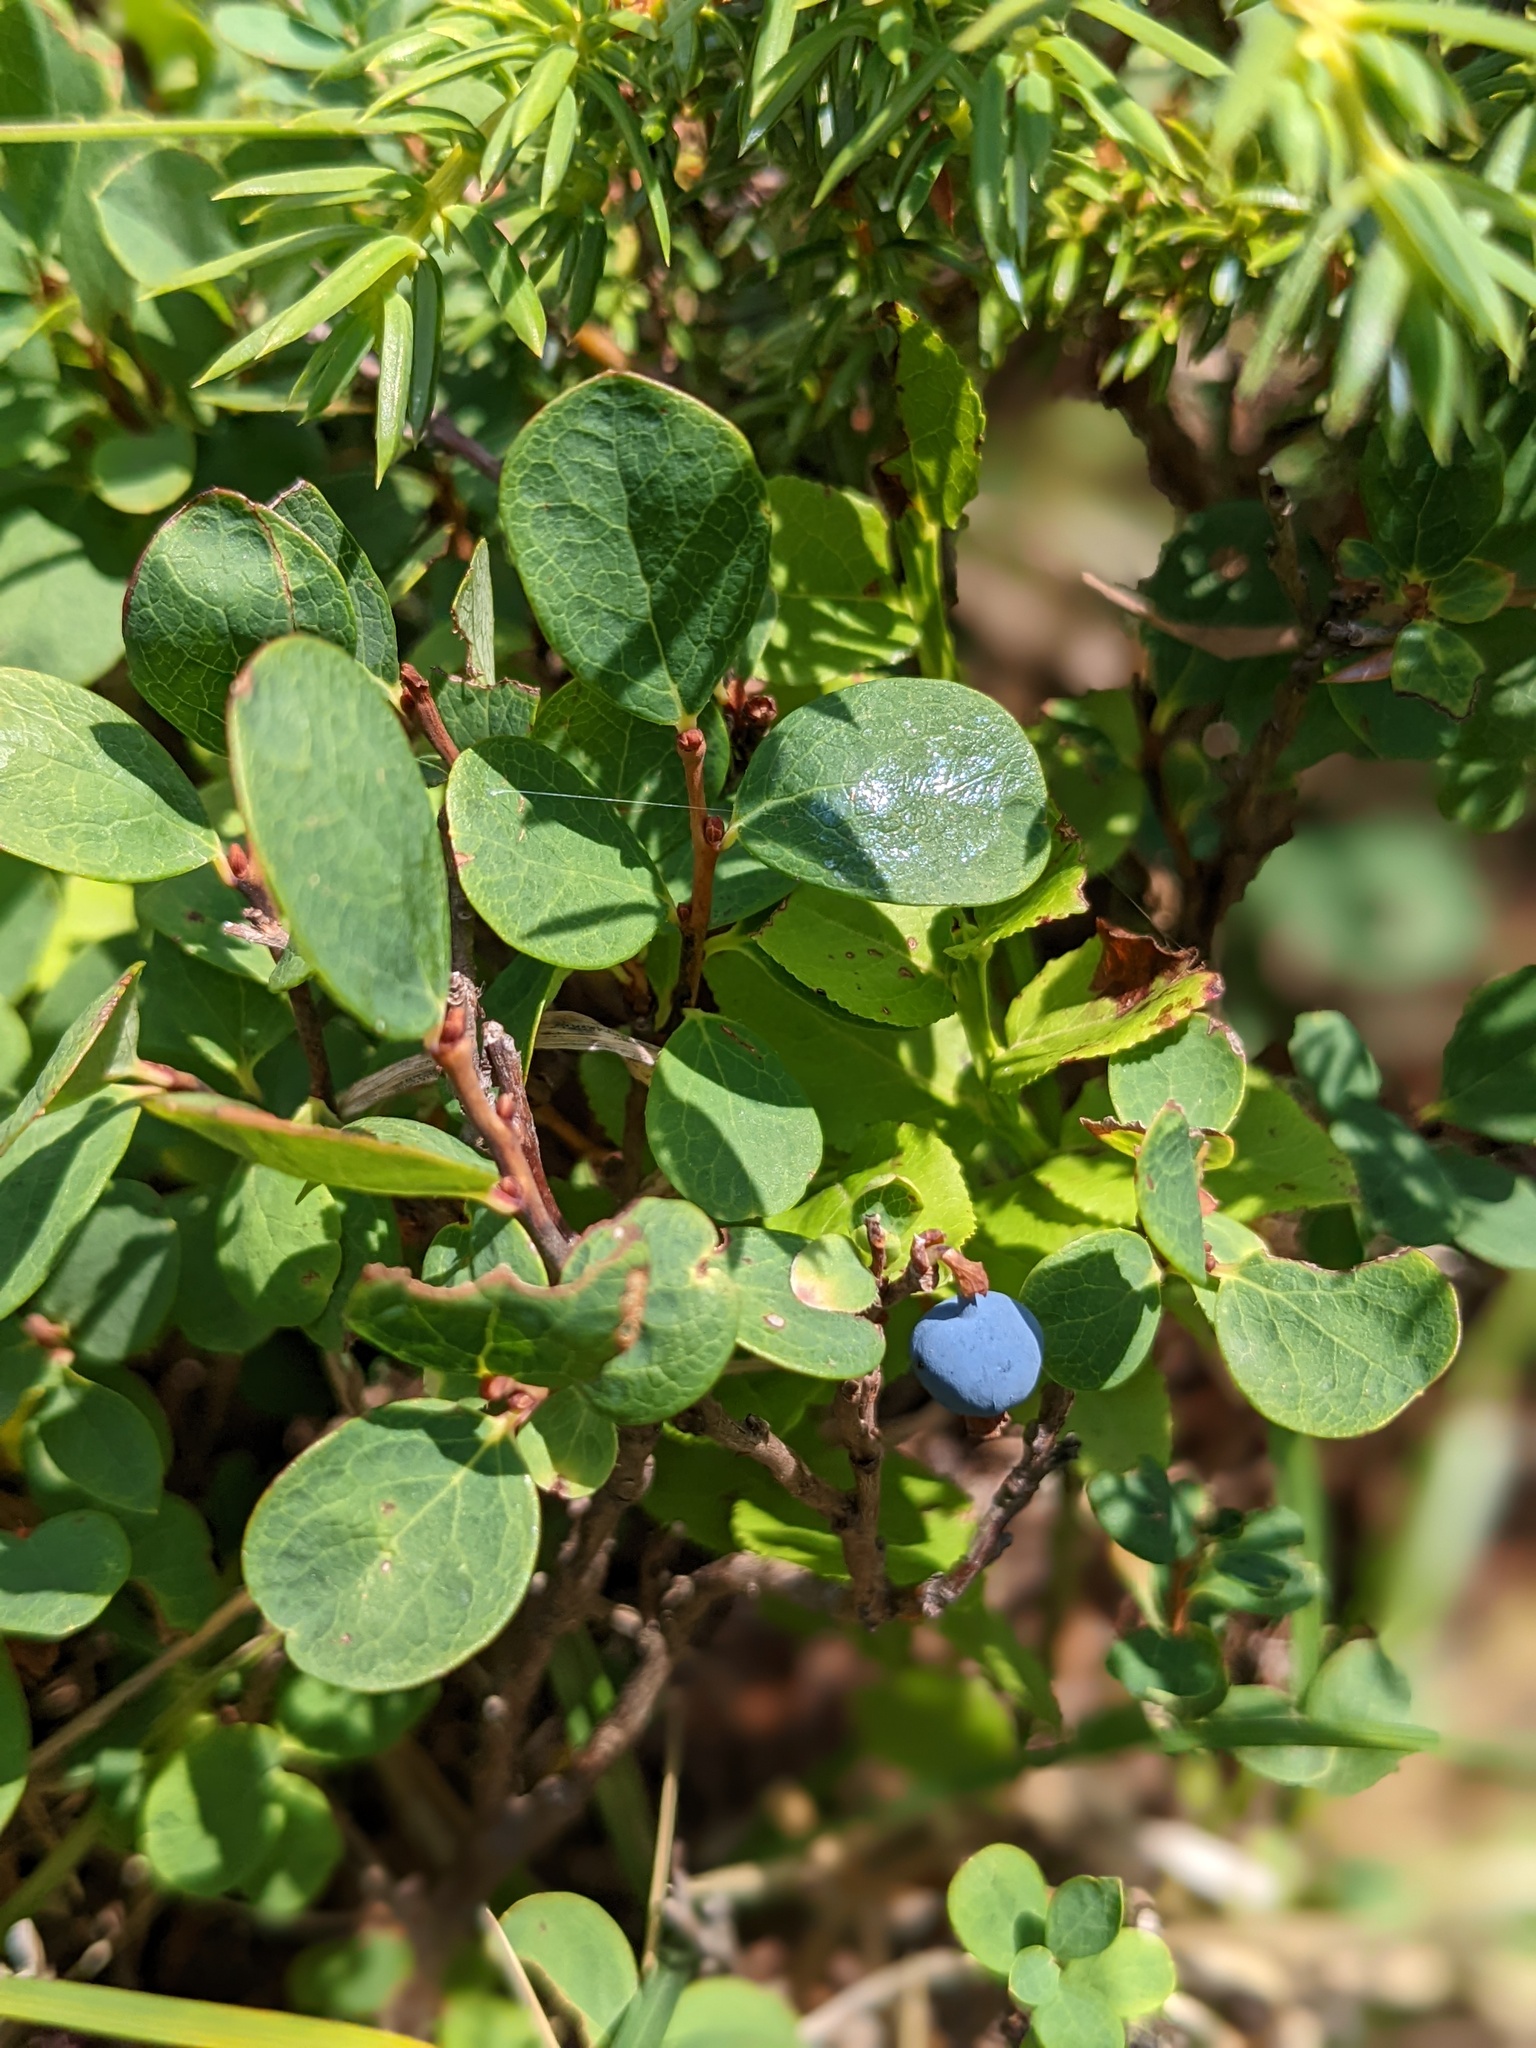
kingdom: Plantae
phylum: Tracheophyta
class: Magnoliopsida
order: Ericales
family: Ericaceae
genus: Vaccinium
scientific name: Vaccinium uliginosum
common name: Bog bilberry
